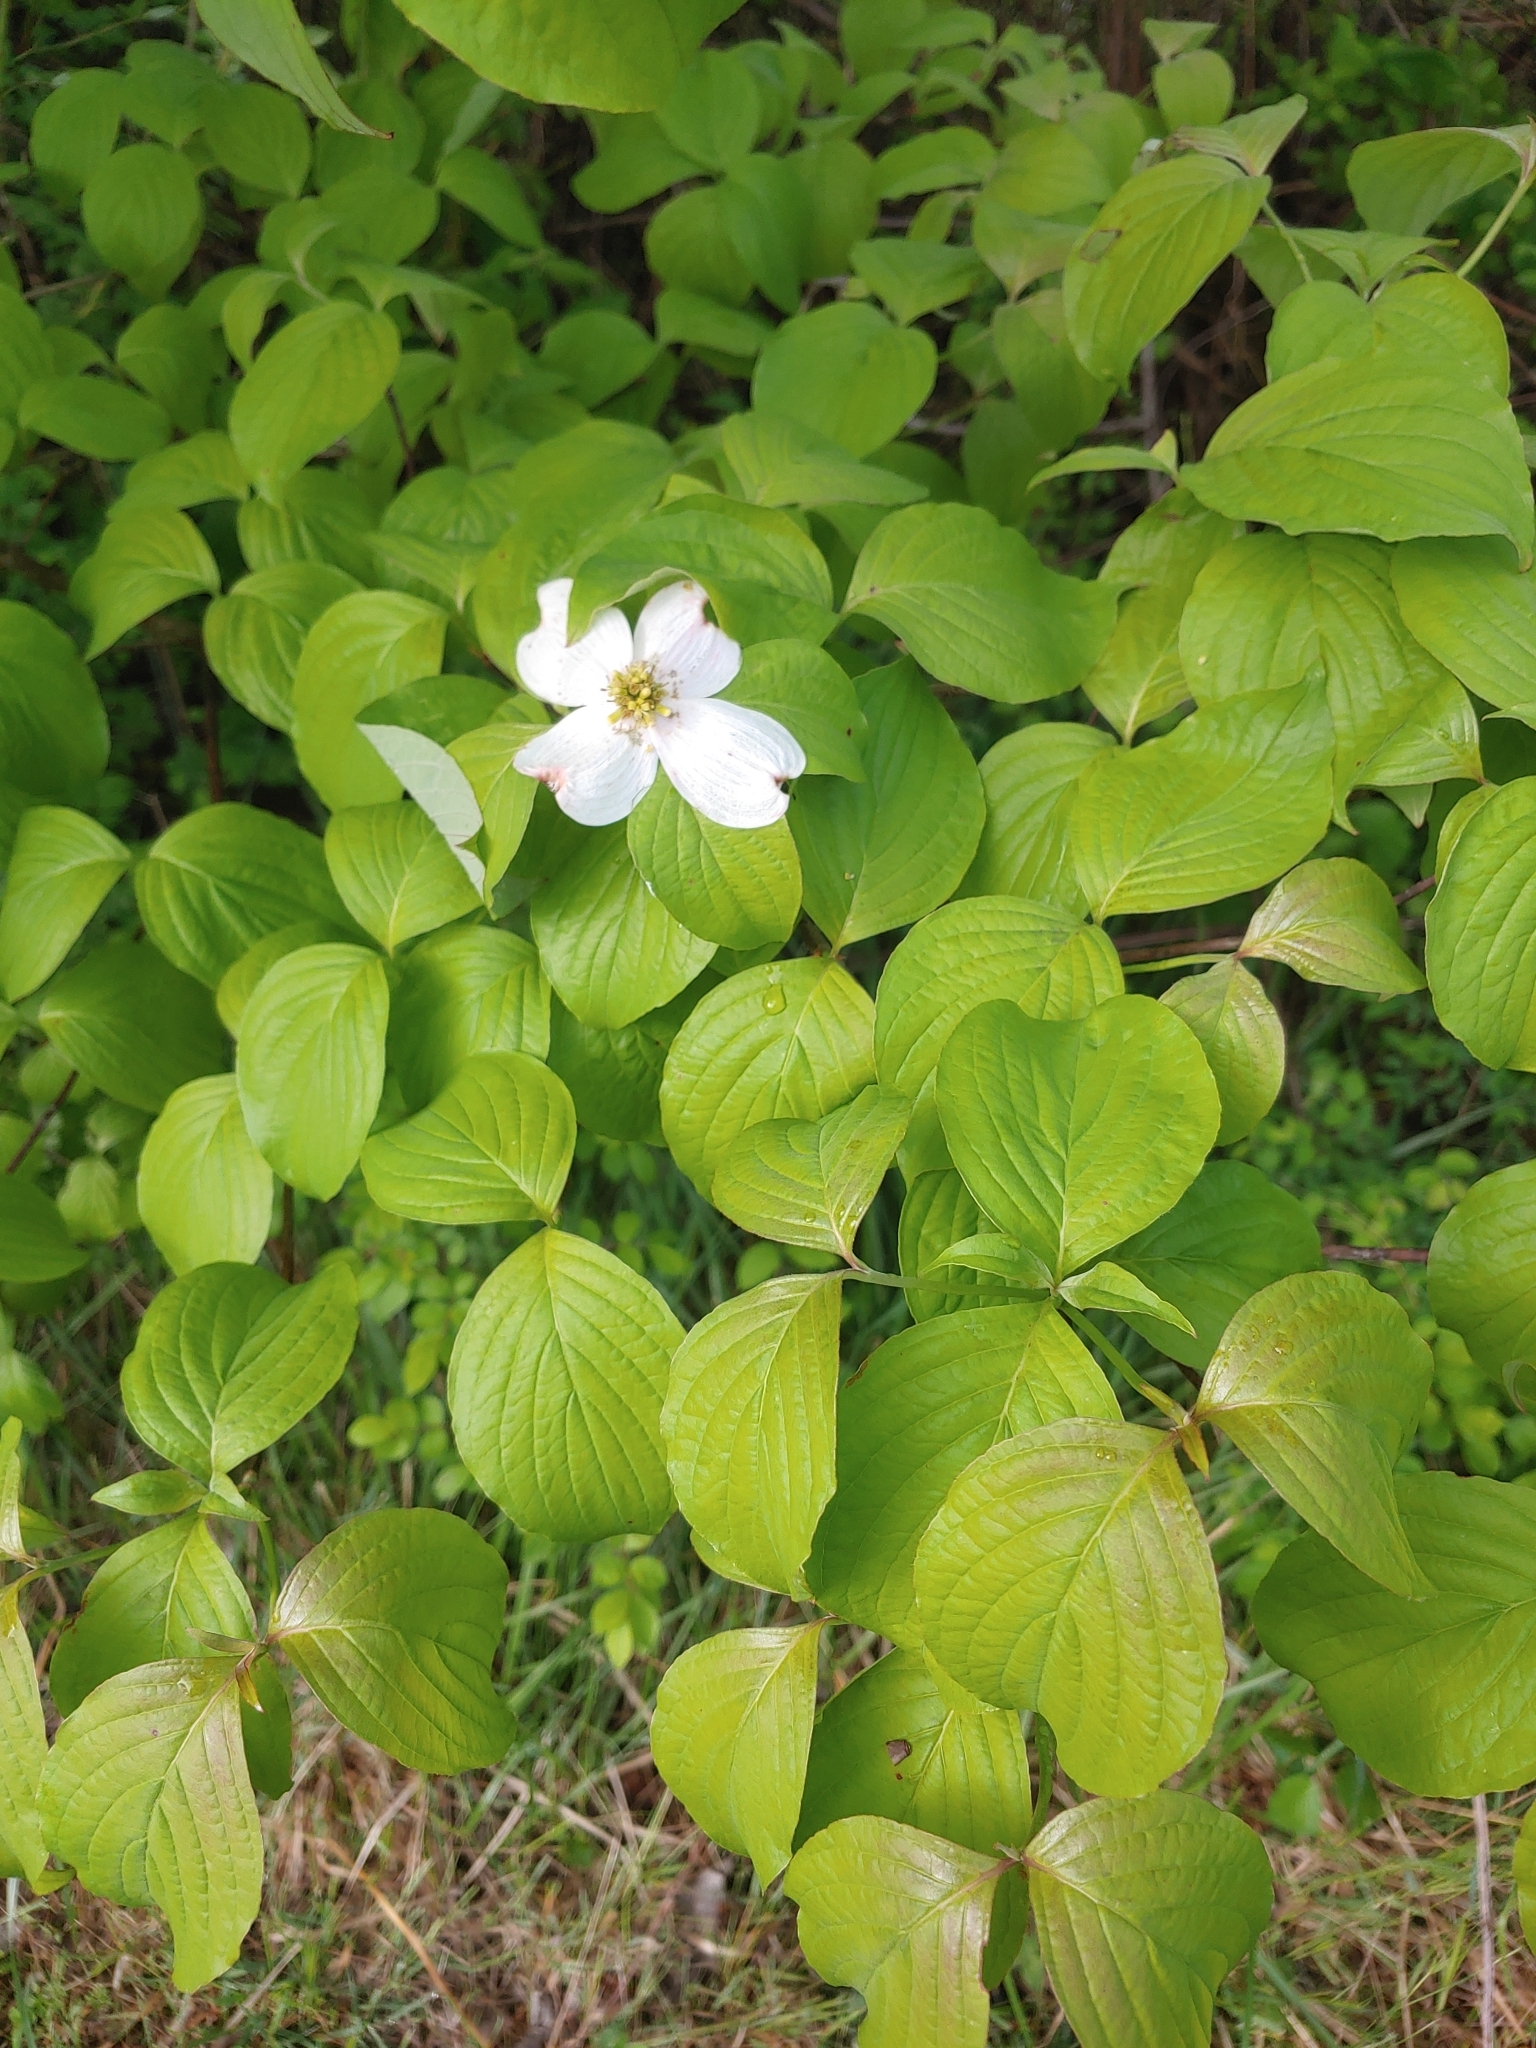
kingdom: Plantae
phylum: Tracheophyta
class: Magnoliopsida
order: Cornales
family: Cornaceae
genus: Cornus
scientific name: Cornus florida
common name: Flowering dogwood
